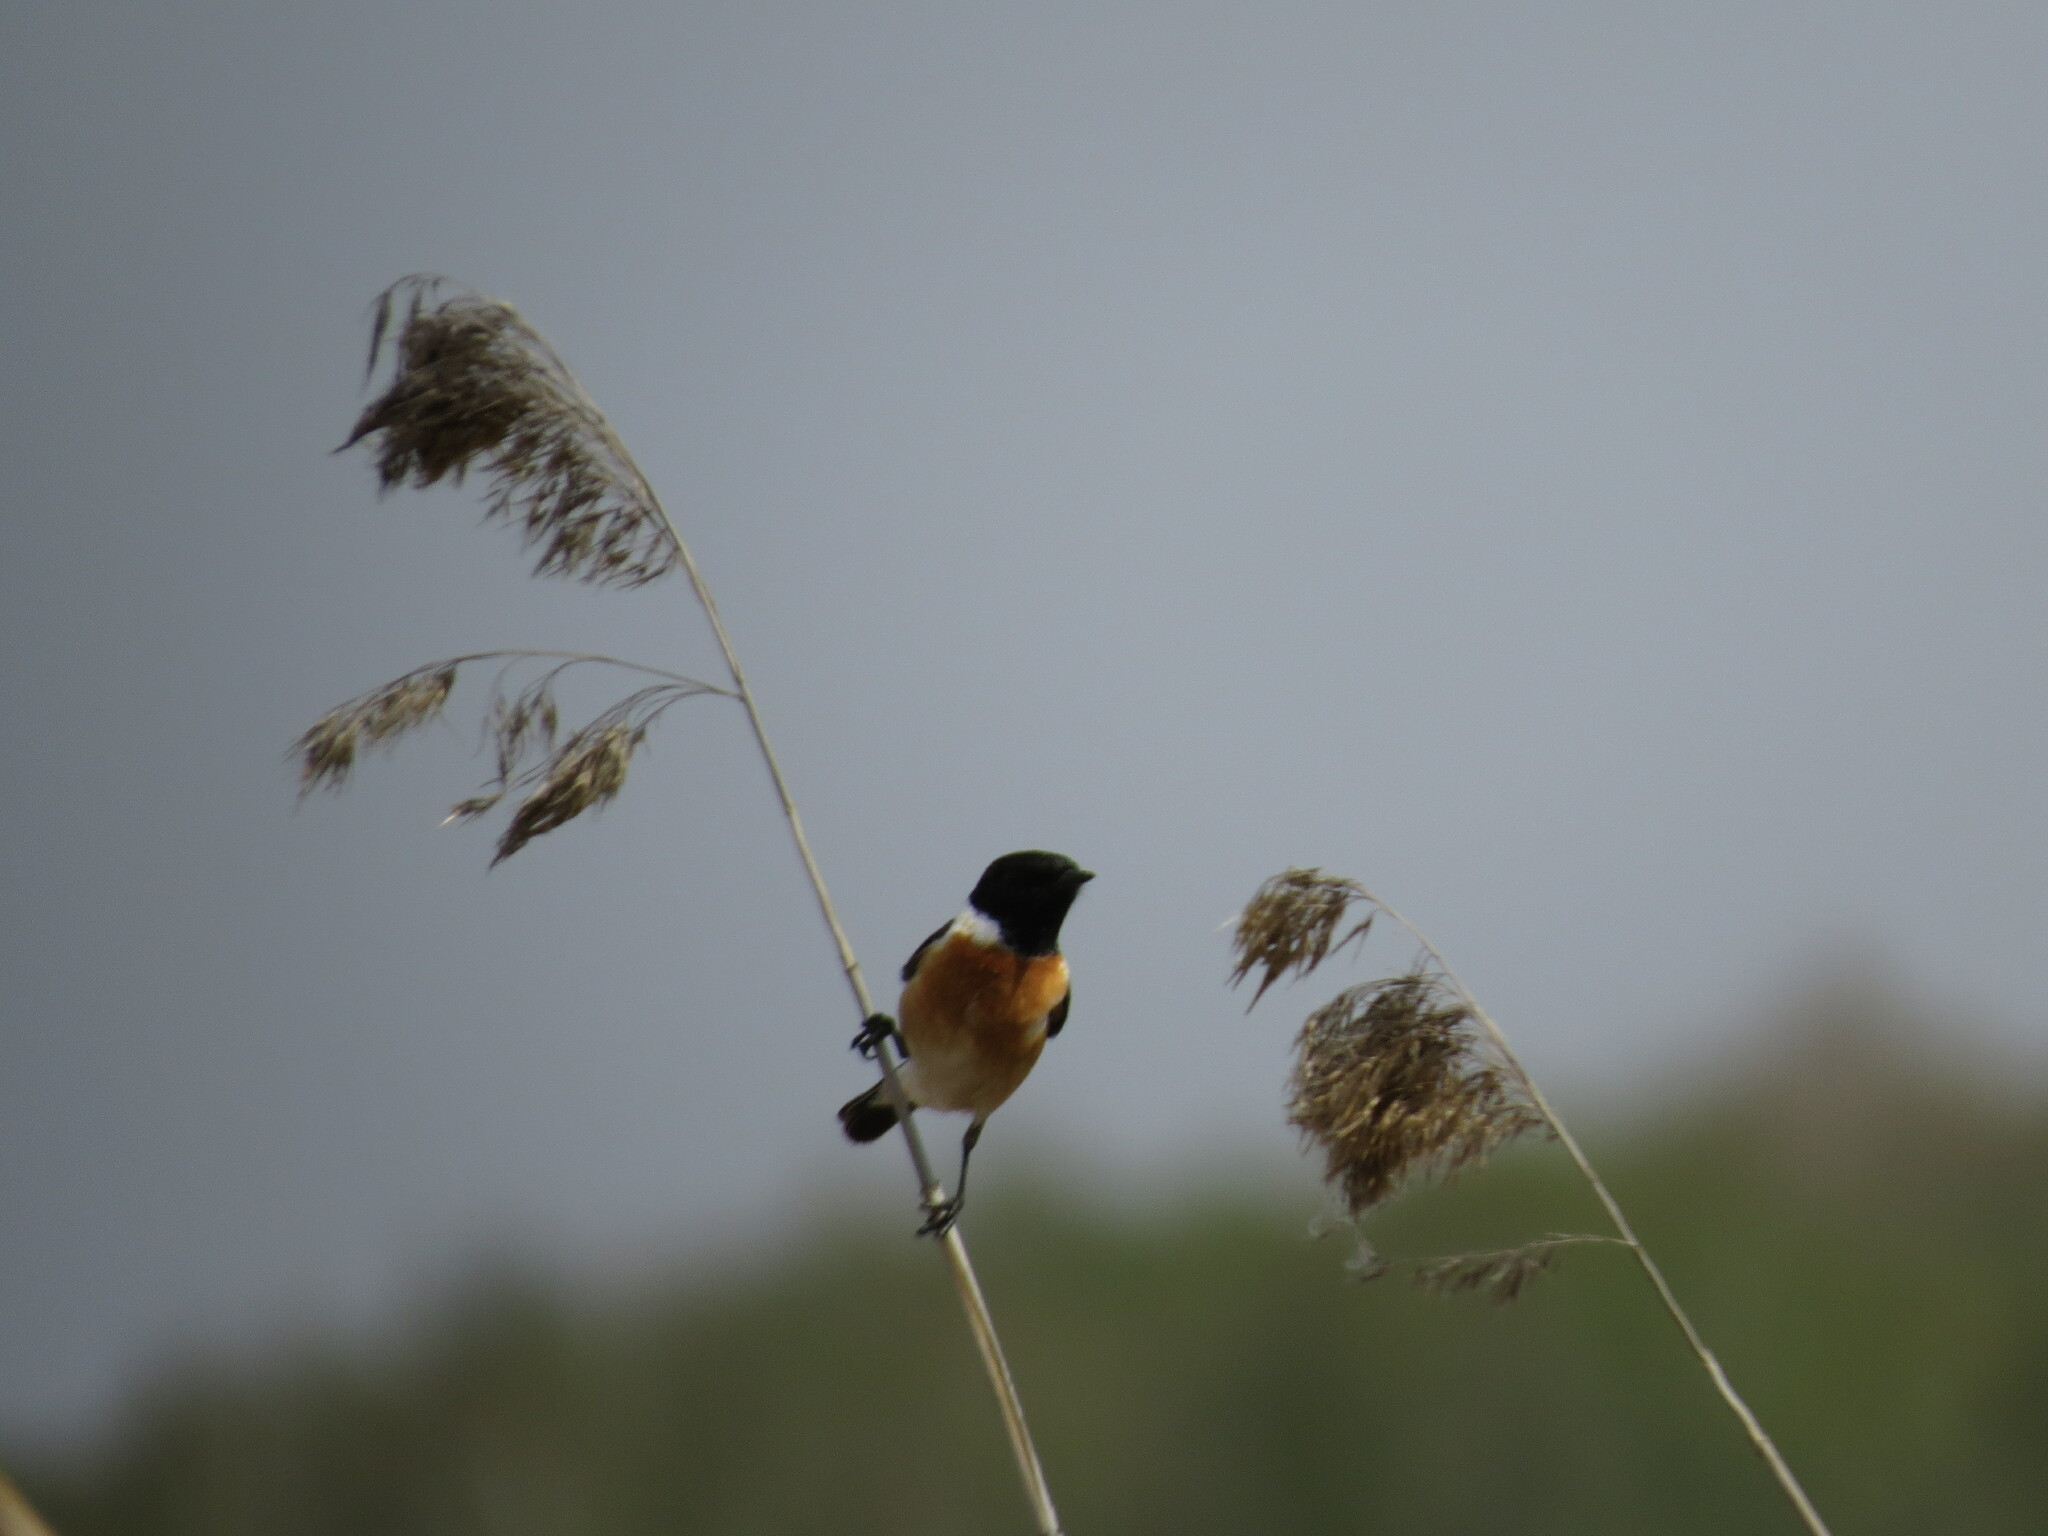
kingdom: Animalia
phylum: Chordata
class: Aves
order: Passeriformes
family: Muscicapidae
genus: Saxicola
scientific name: Saxicola maurus
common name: Siberian stonechat
